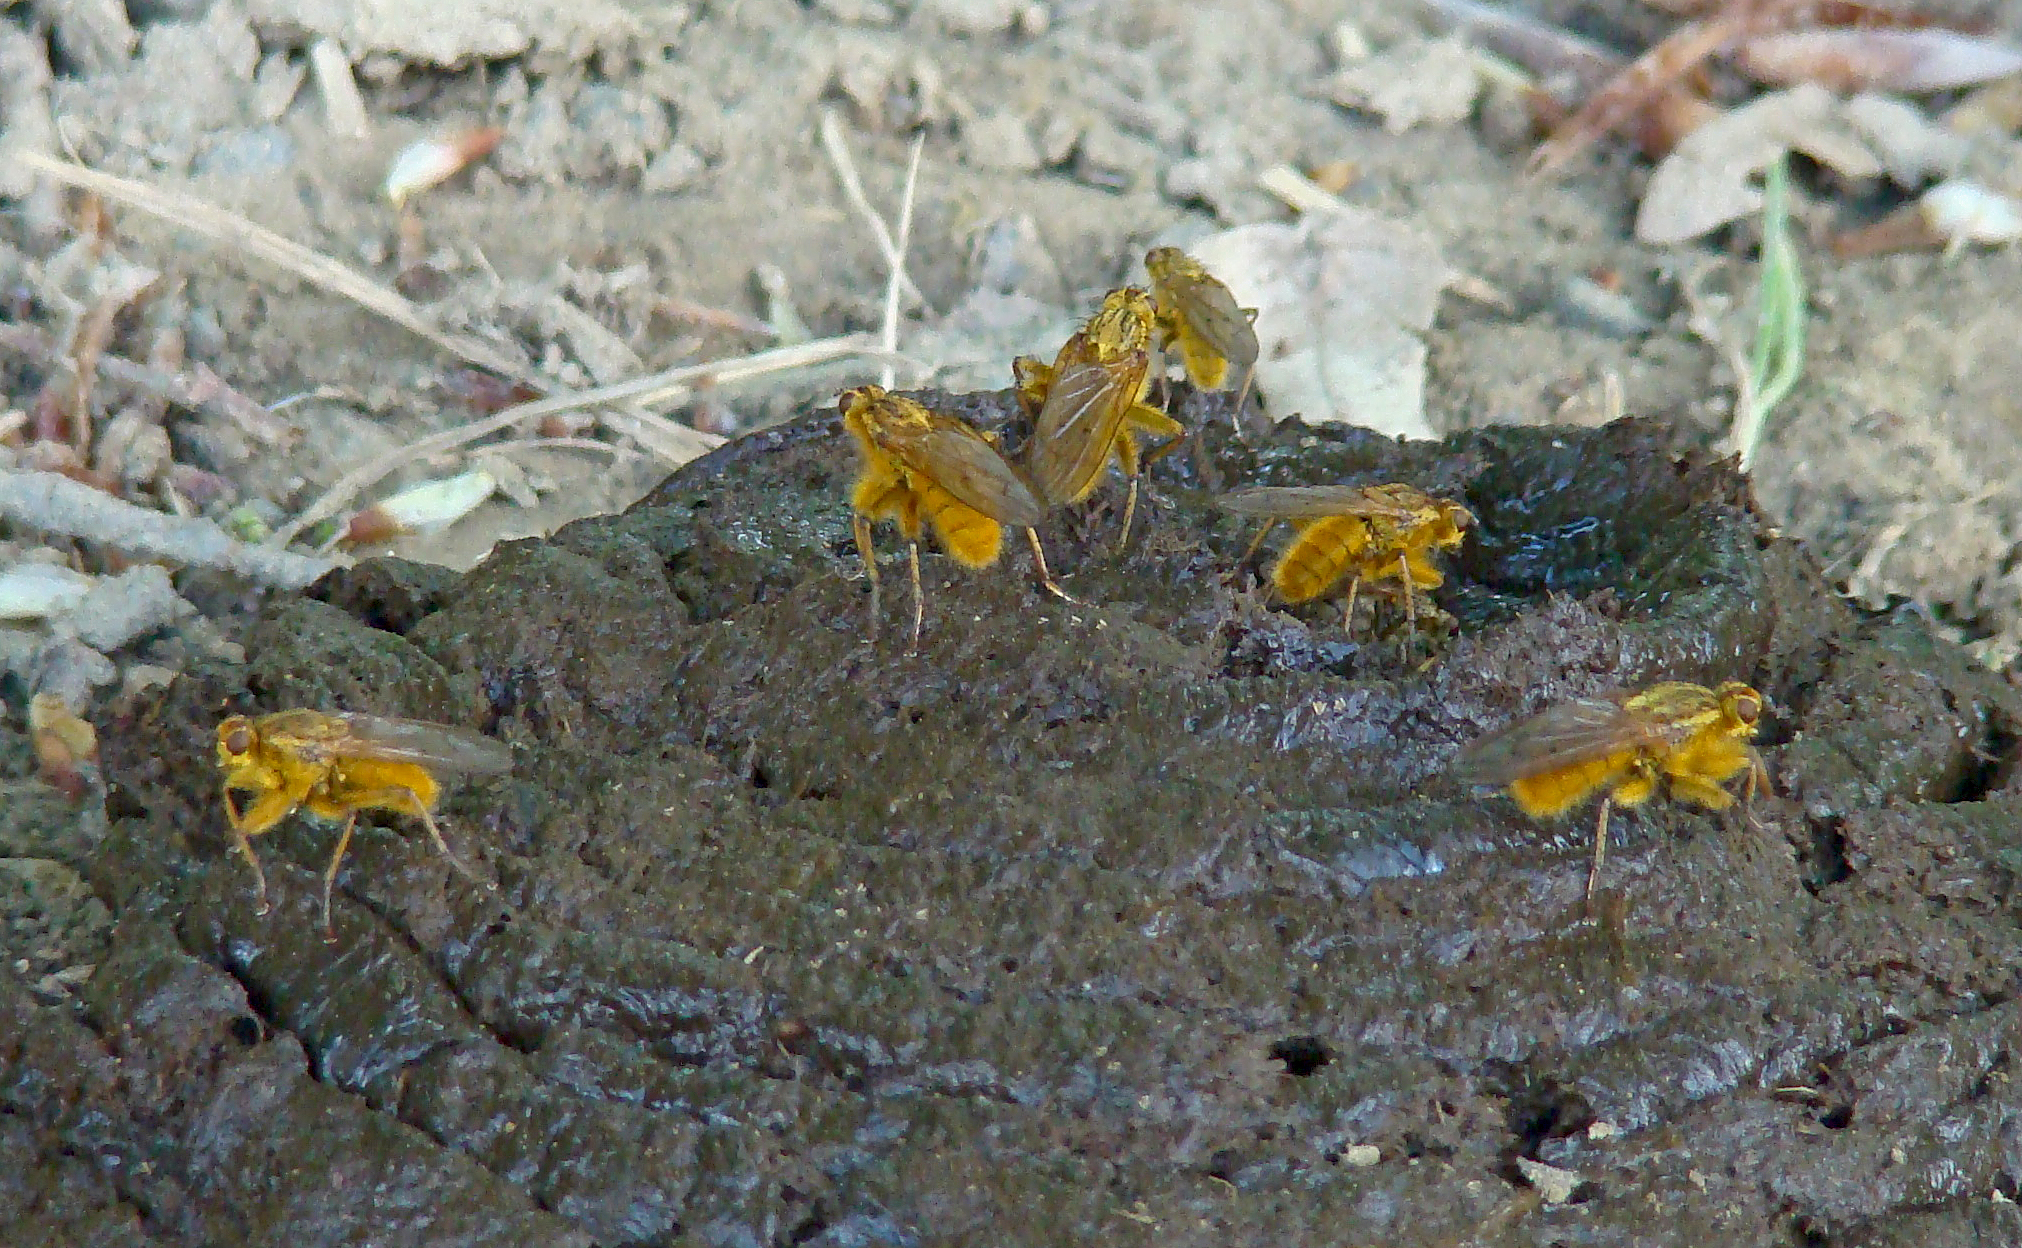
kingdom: Animalia
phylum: Arthropoda
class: Insecta
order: Diptera
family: Scathophagidae
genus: Scathophaga
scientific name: Scathophaga stercoraria
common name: Yellow dung fly
